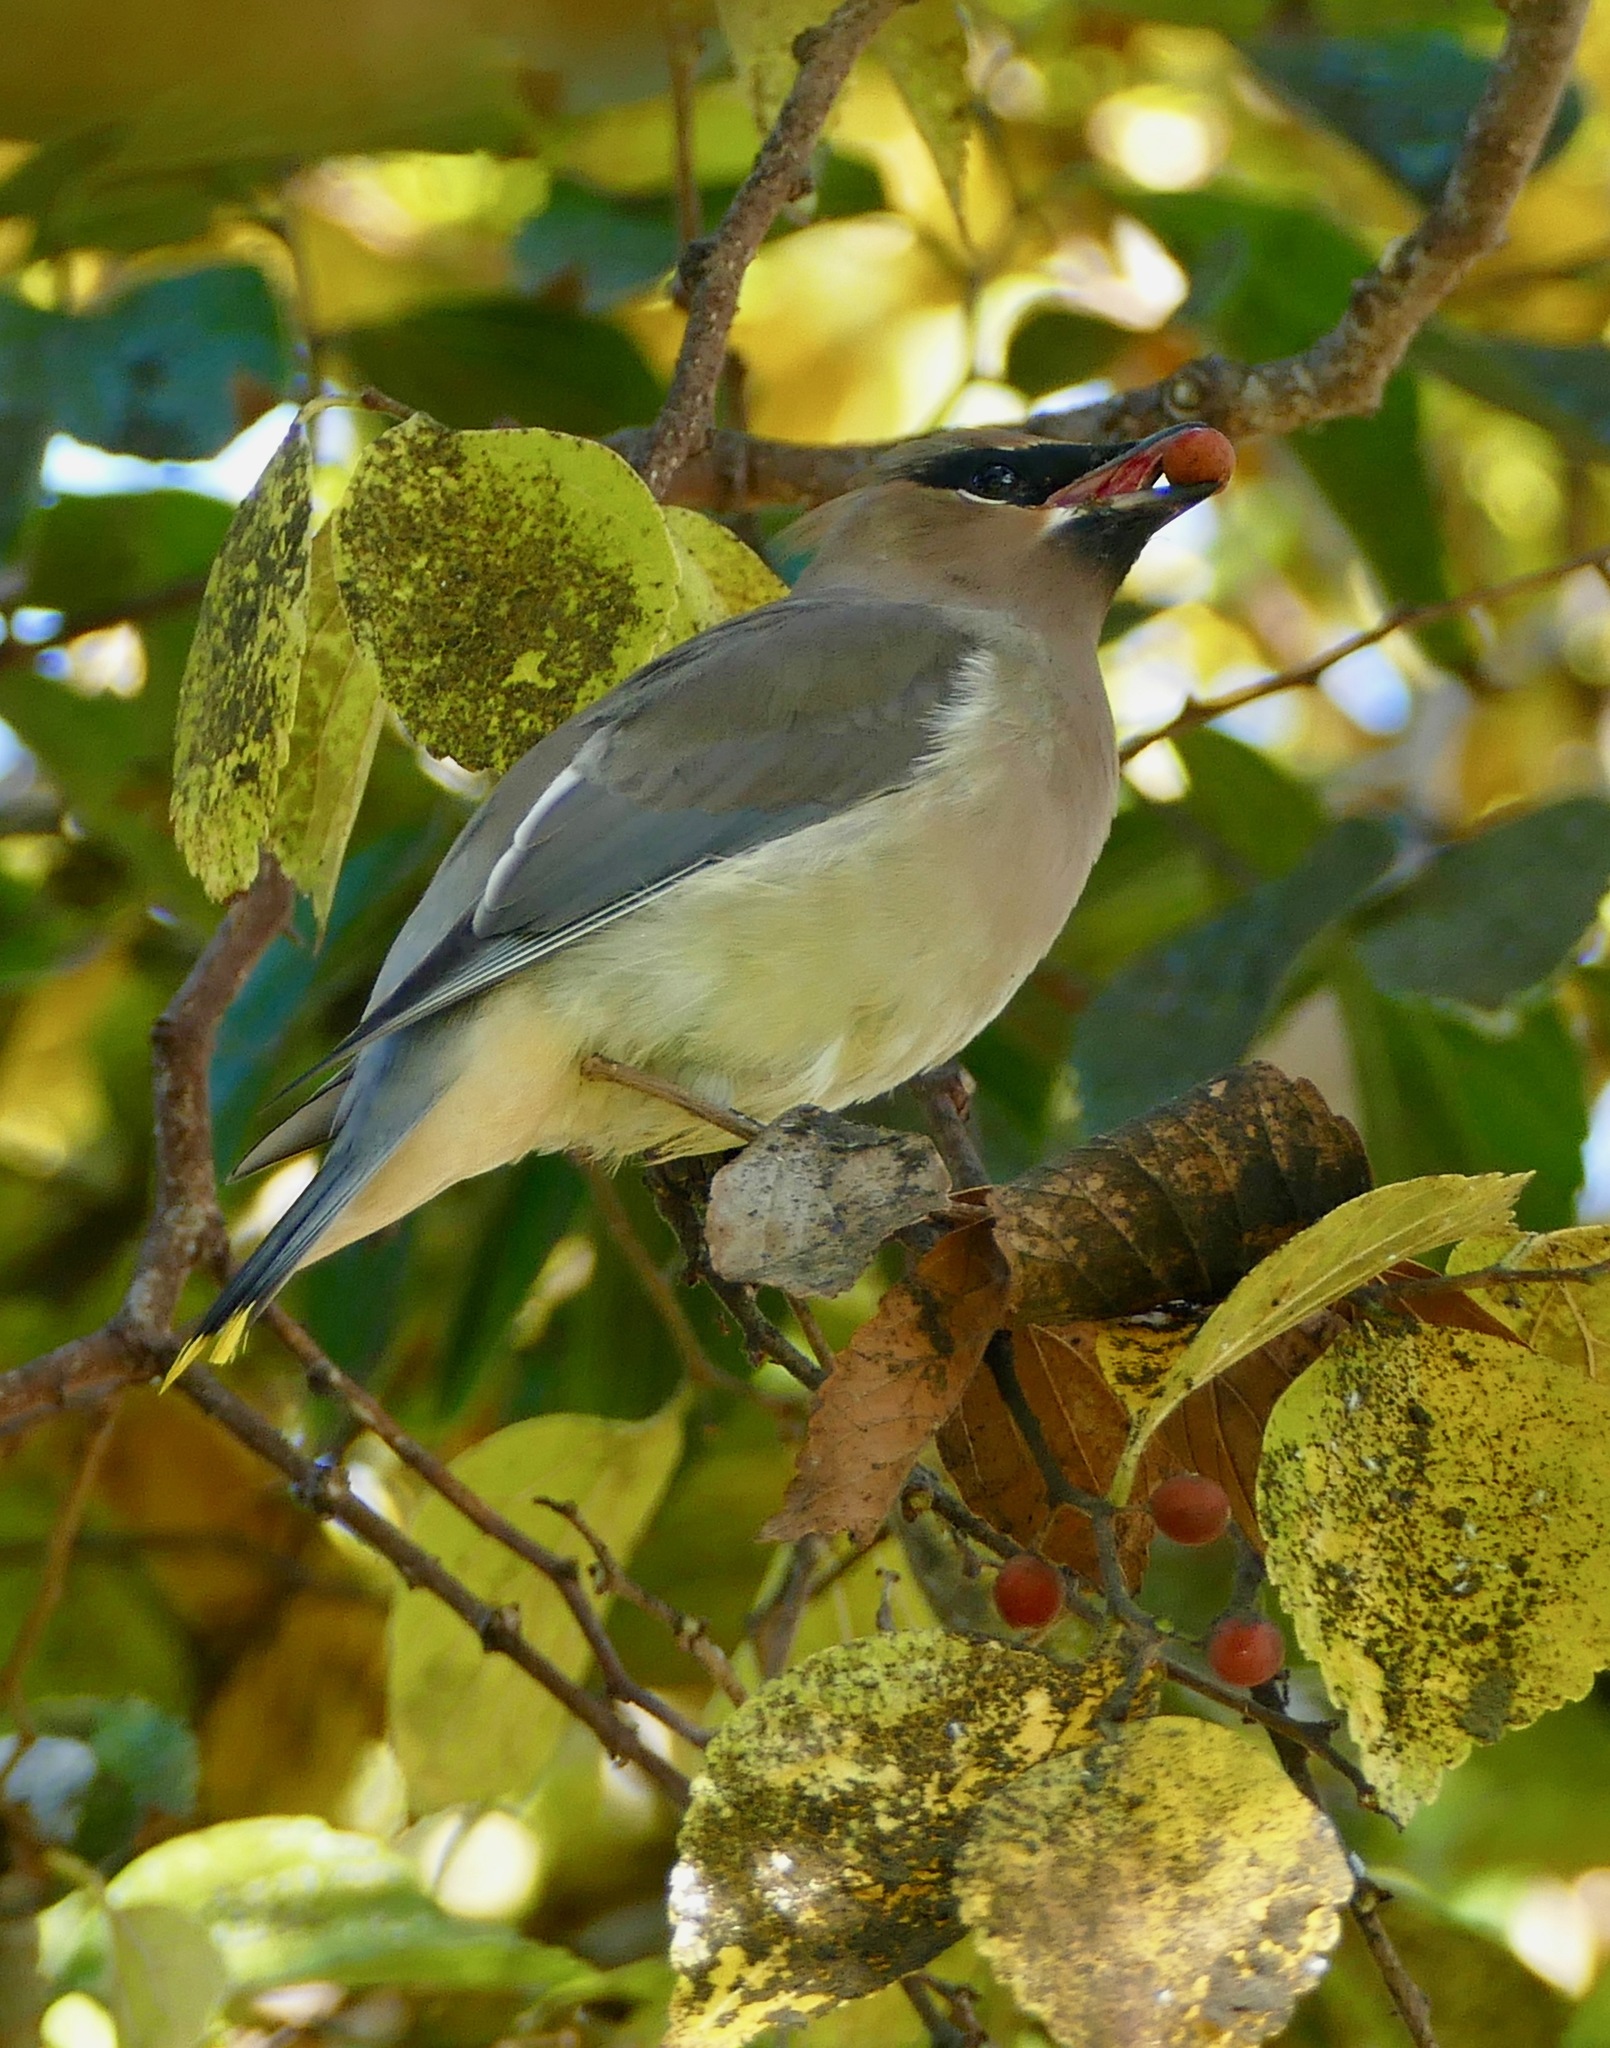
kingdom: Animalia
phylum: Chordata
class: Aves
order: Passeriformes
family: Bombycillidae
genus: Bombycilla
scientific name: Bombycilla cedrorum
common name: Cedar waxwing
